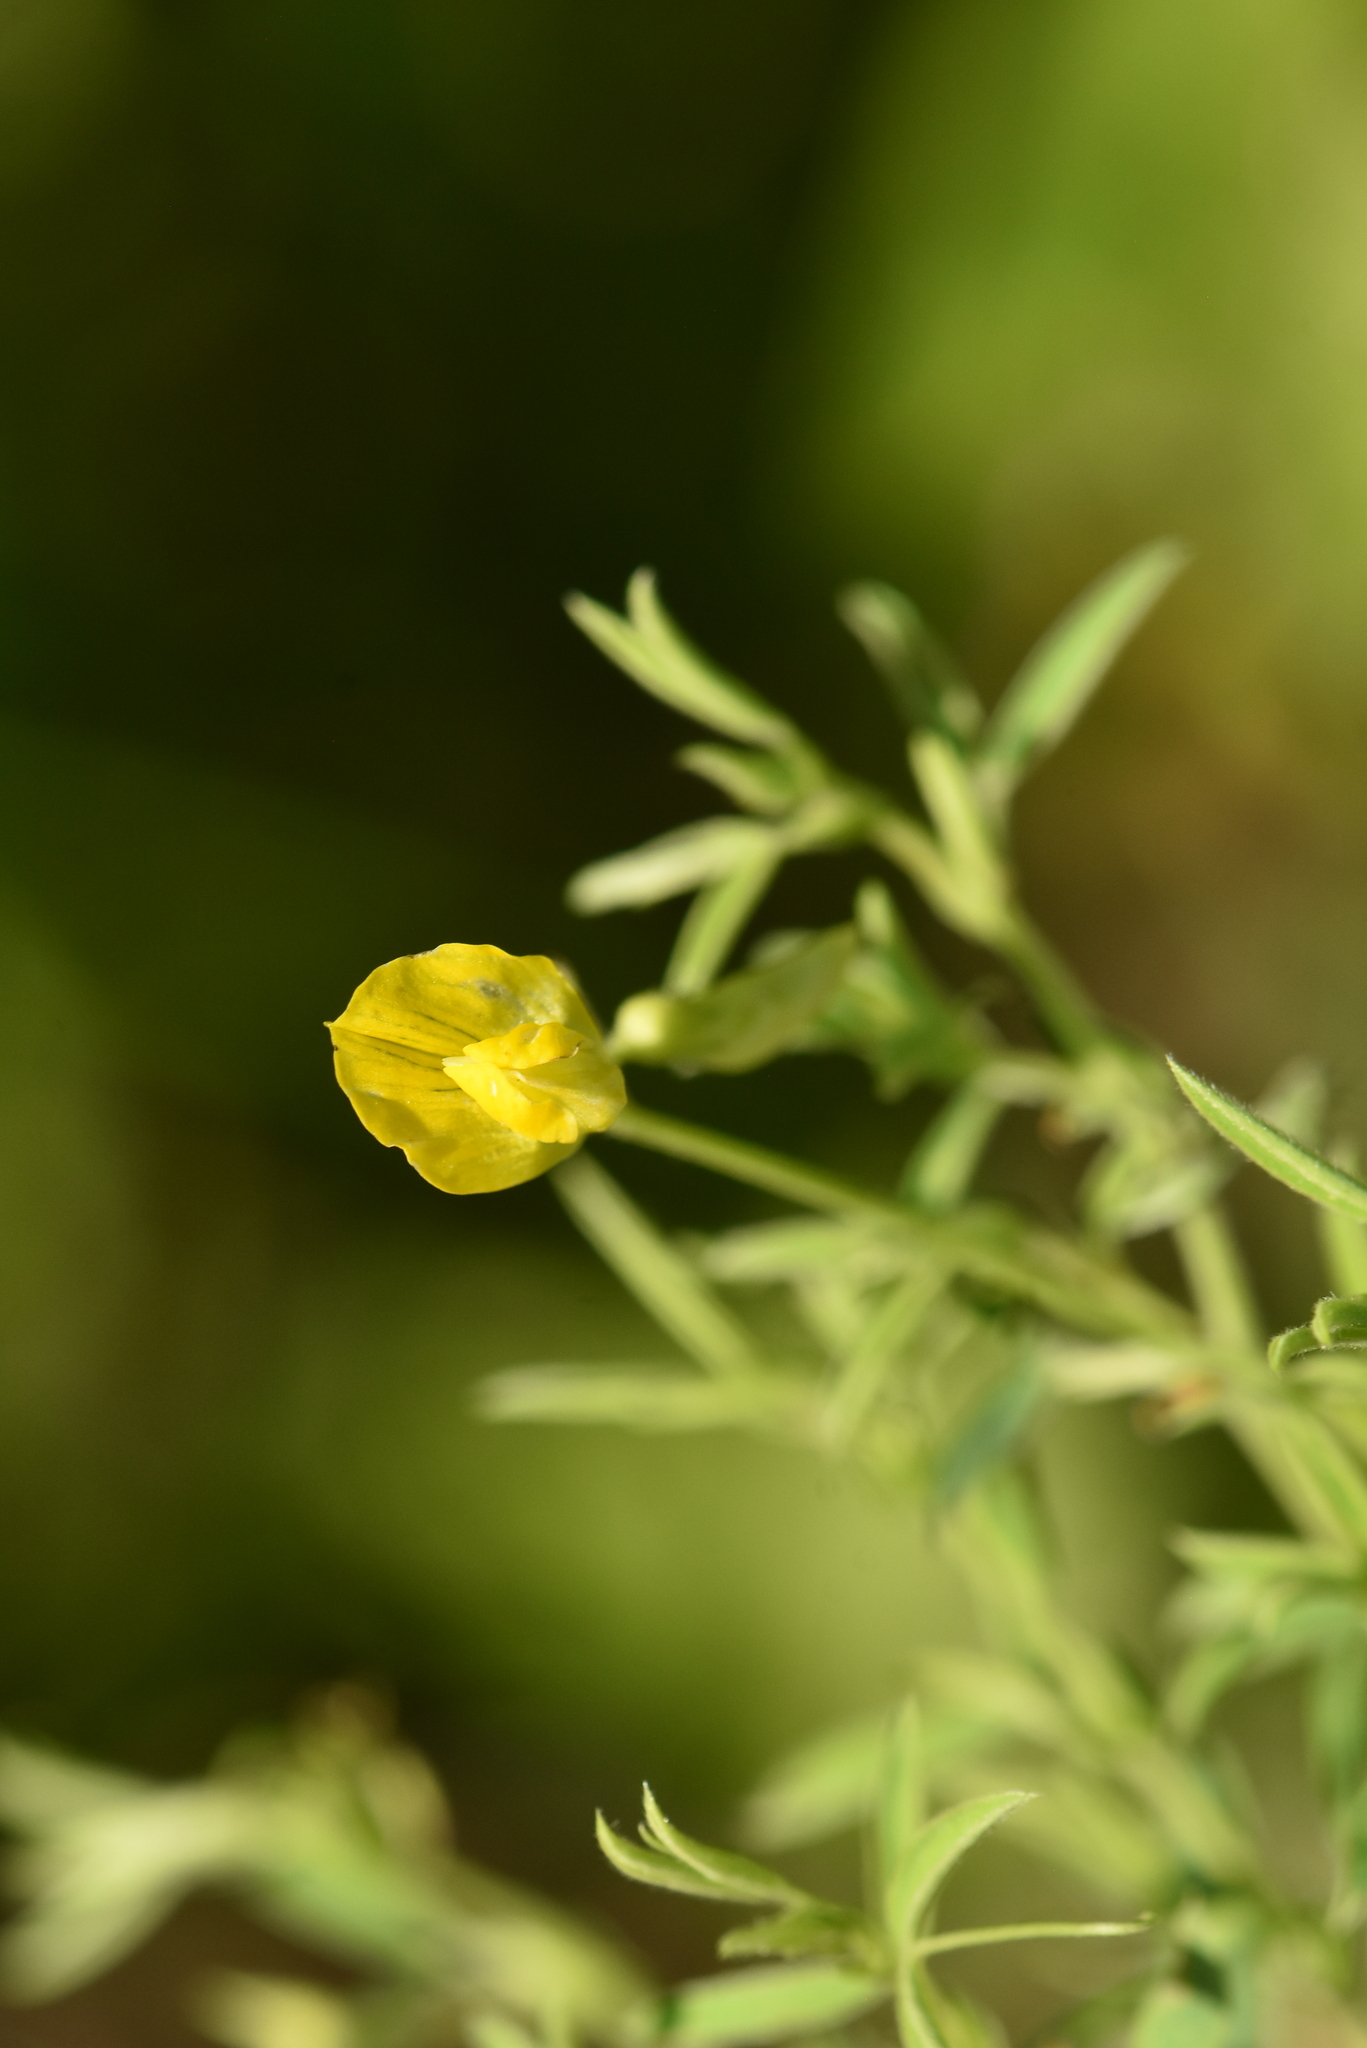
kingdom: Plantae
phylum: Tracheophyta
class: Magnoliopsida
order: Fabales
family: Fabaceae
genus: Lathyrus
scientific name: Lathyrus pratensis
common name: Meadow vetchling
